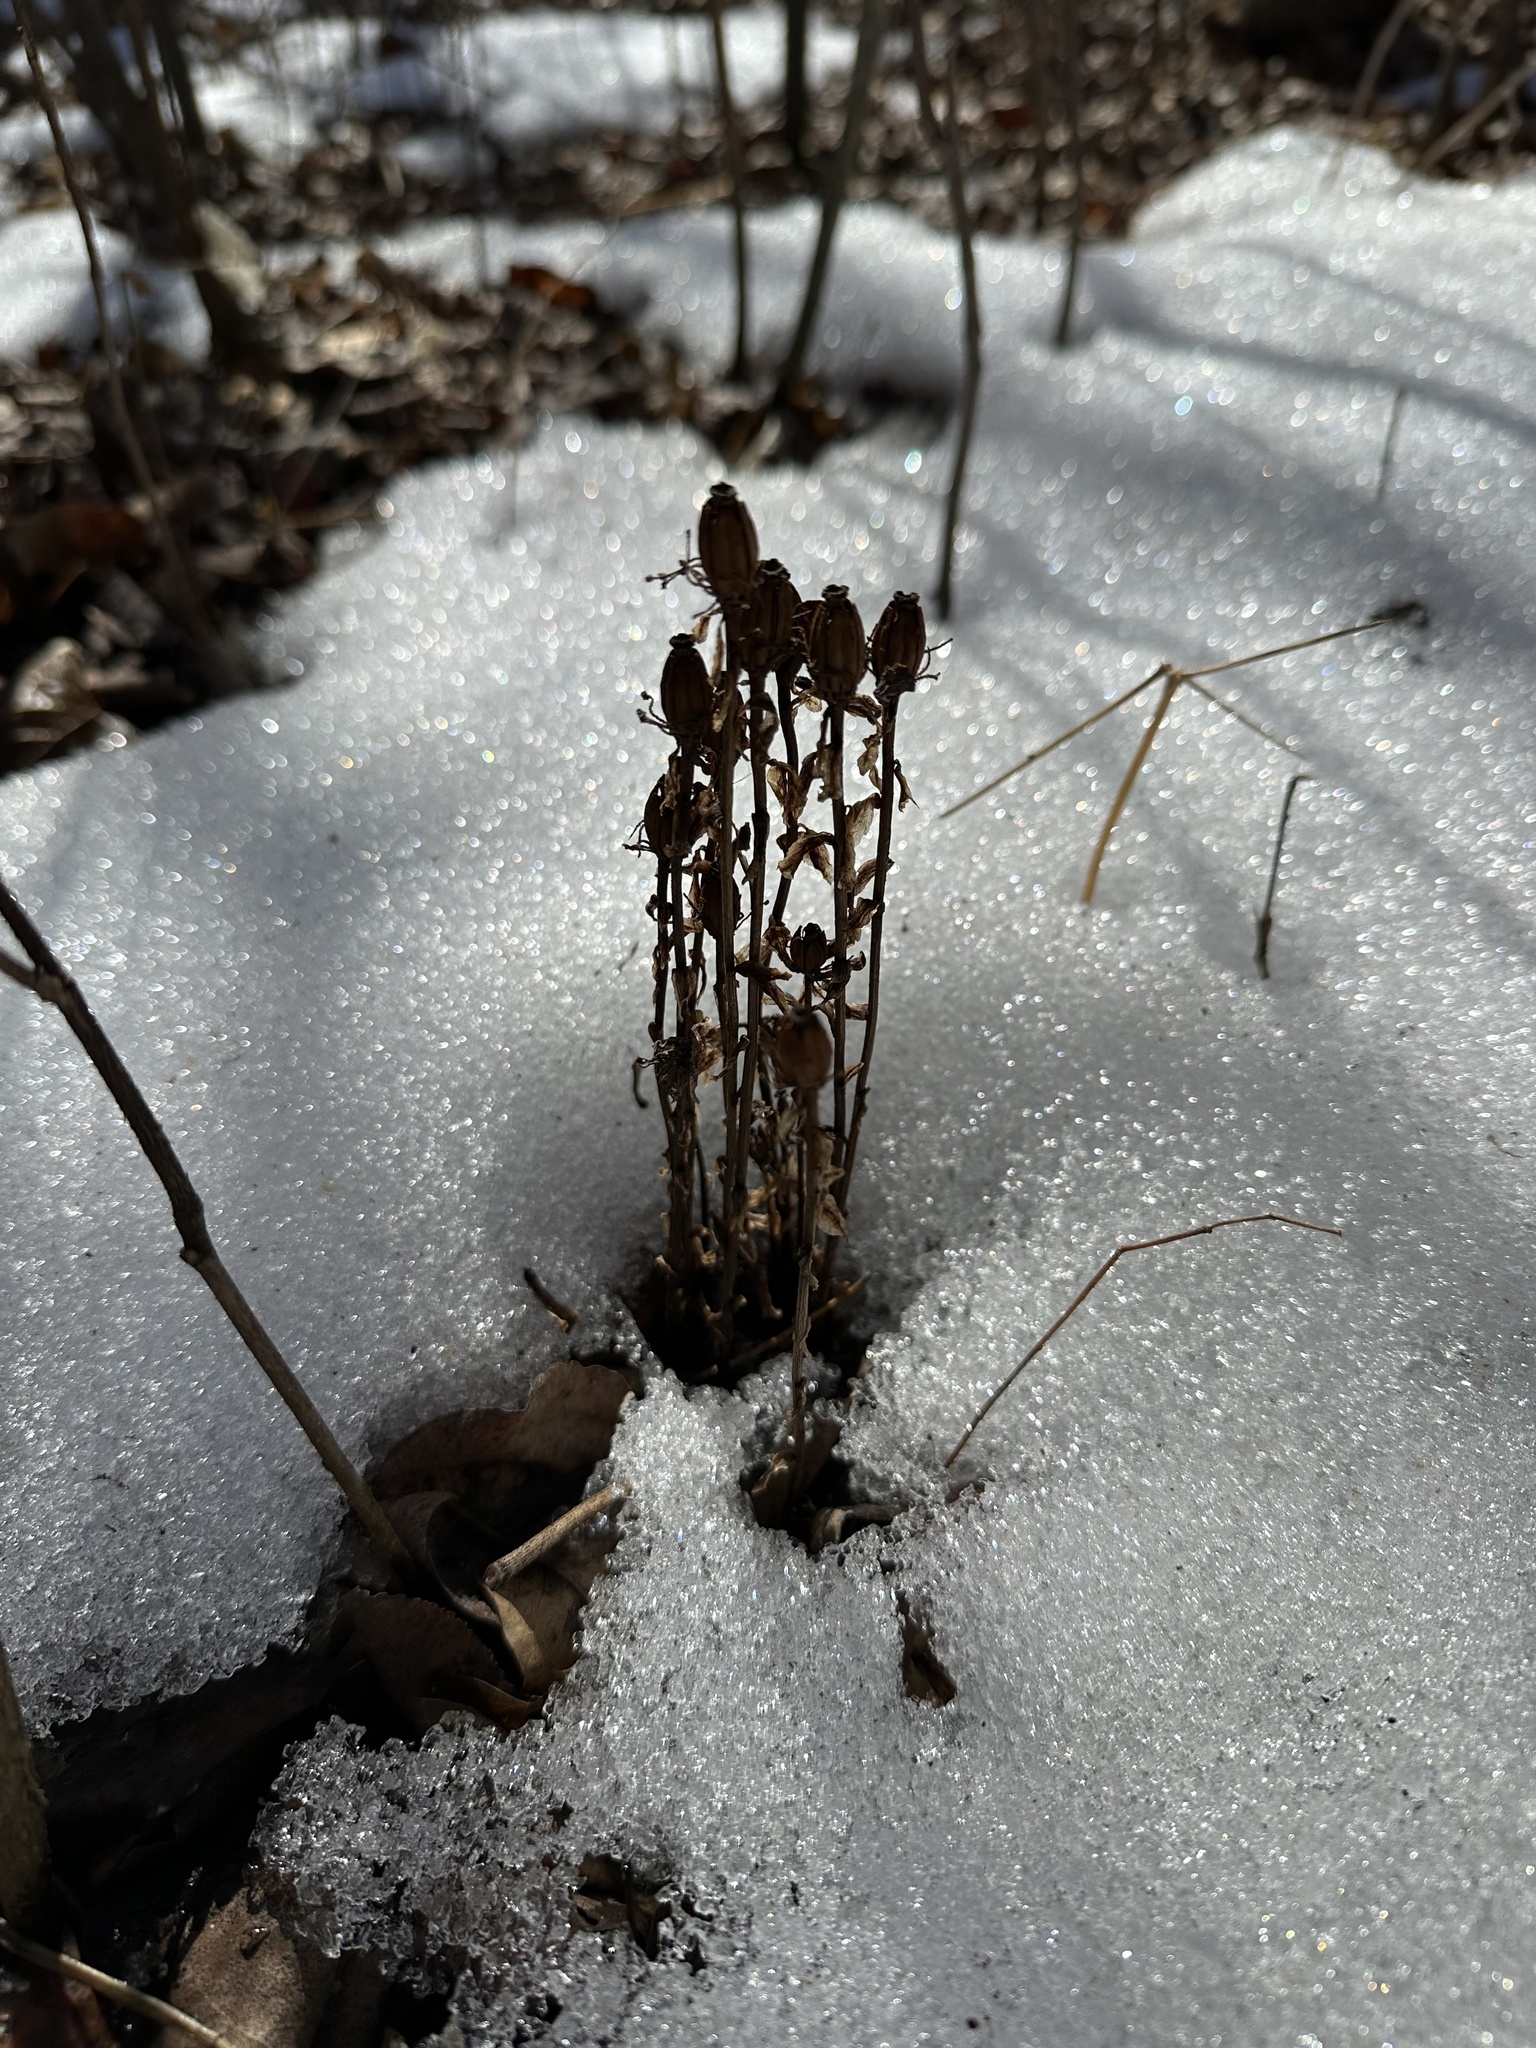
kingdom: Plantae
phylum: Tracheophyta
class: Magnoliopsida
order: Ericales
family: Ericaceae
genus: Monotropa
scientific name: Monotropa uniflora
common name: Convulsion root
